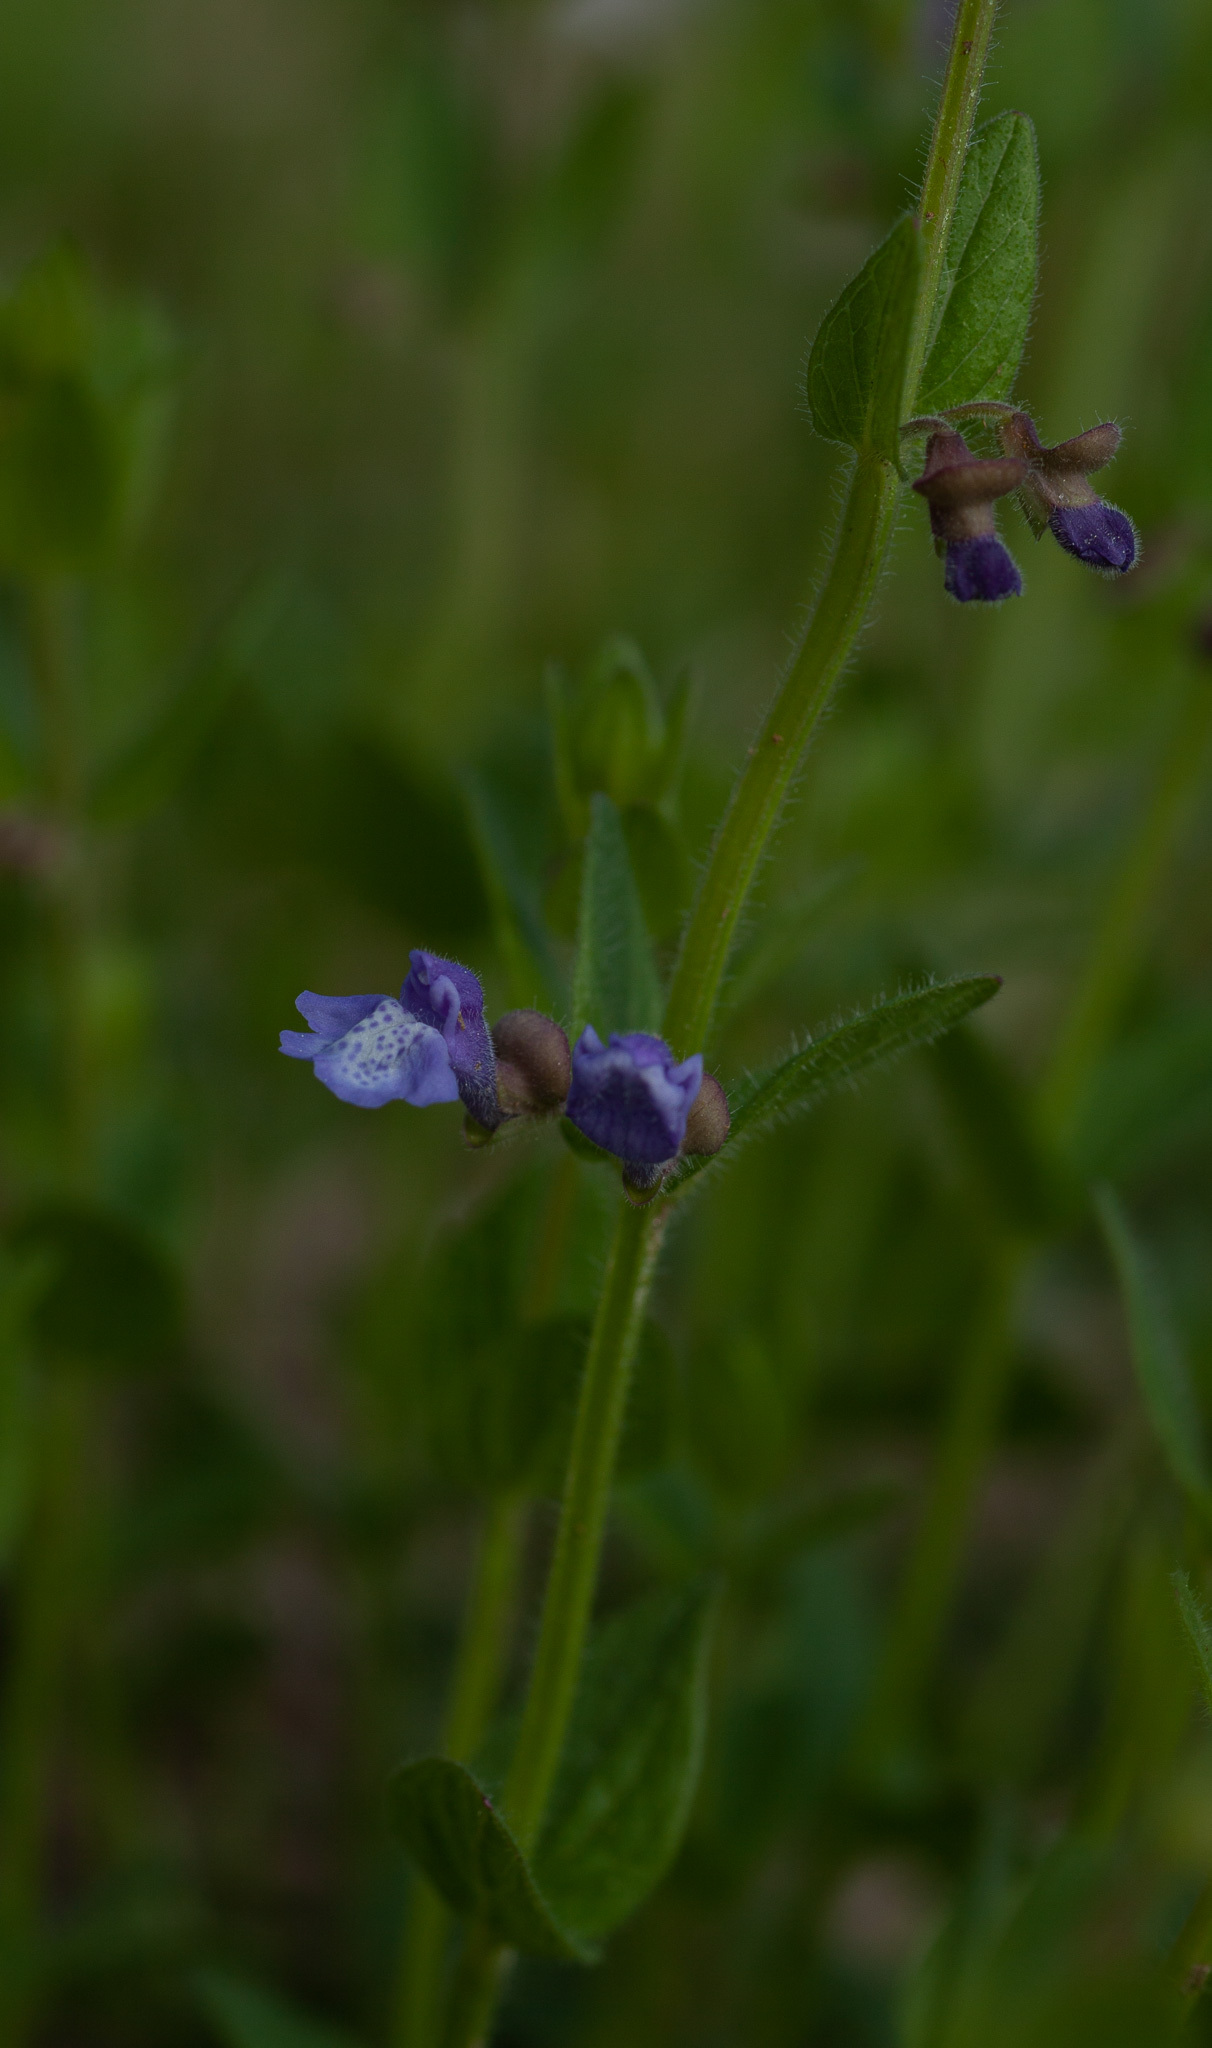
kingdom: Plantae
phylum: Tracheophyta
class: Magnoliopsida
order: Lamiales
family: Lamiaceae
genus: Scutellaria
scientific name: Scutellaria parvula
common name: Little scullcap
